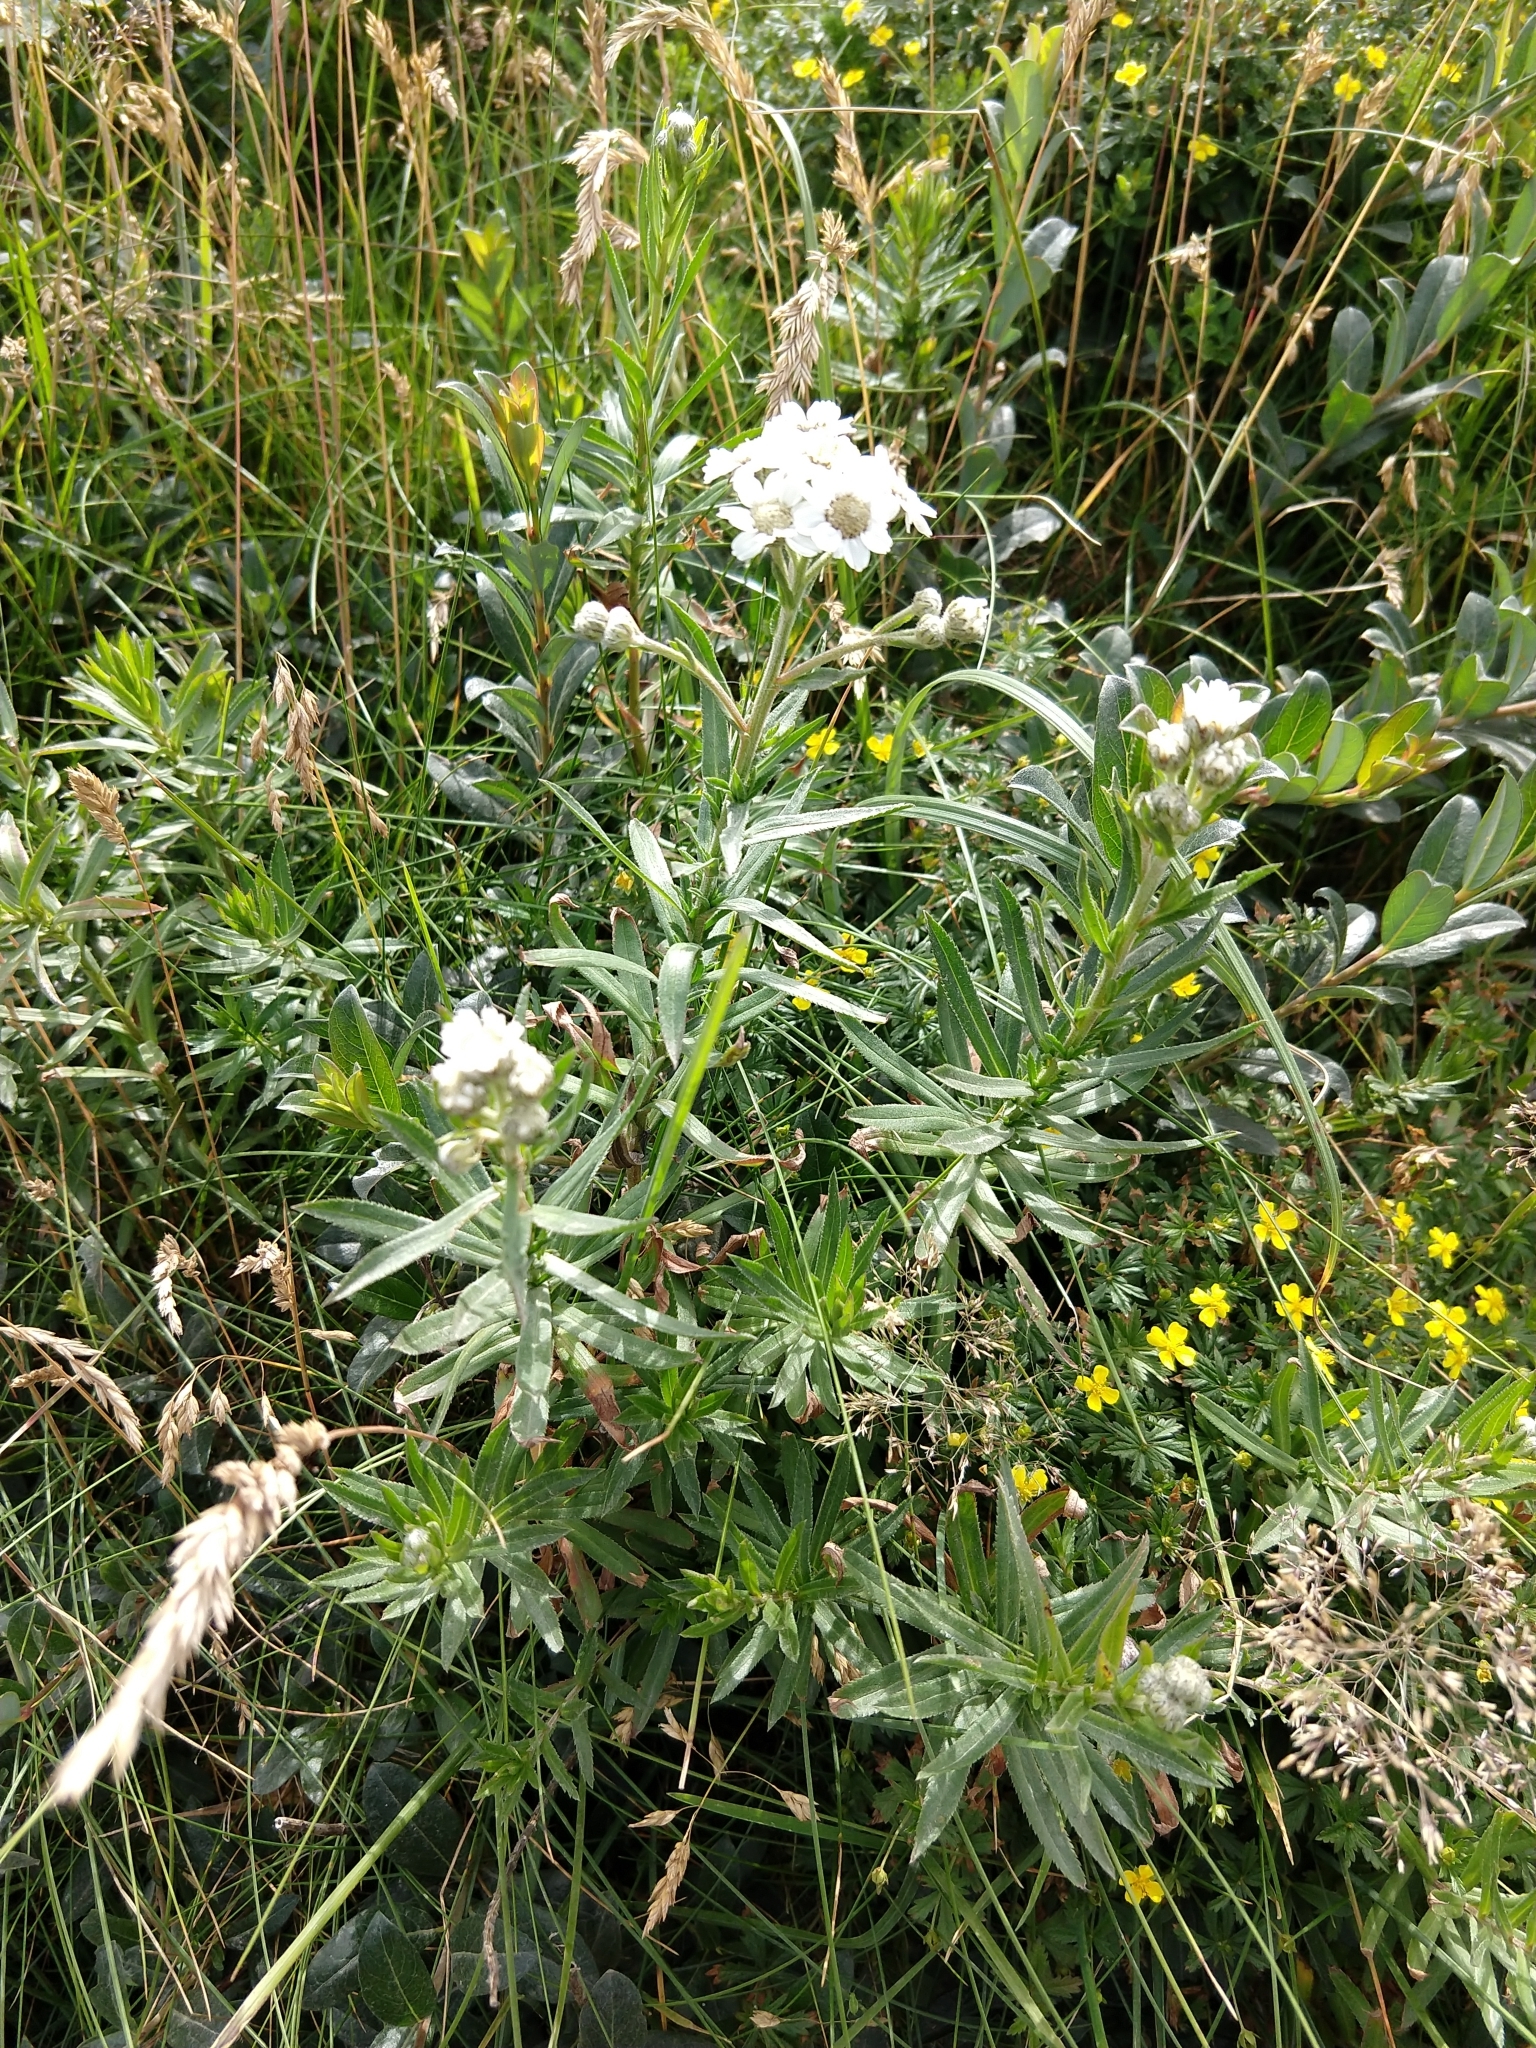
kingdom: Plantae
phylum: Tracheophyta
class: Magnoliopsida
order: Asterales
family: Asteraceae
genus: Achillea
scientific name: Achillea ptarmica
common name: Sneezeweed
